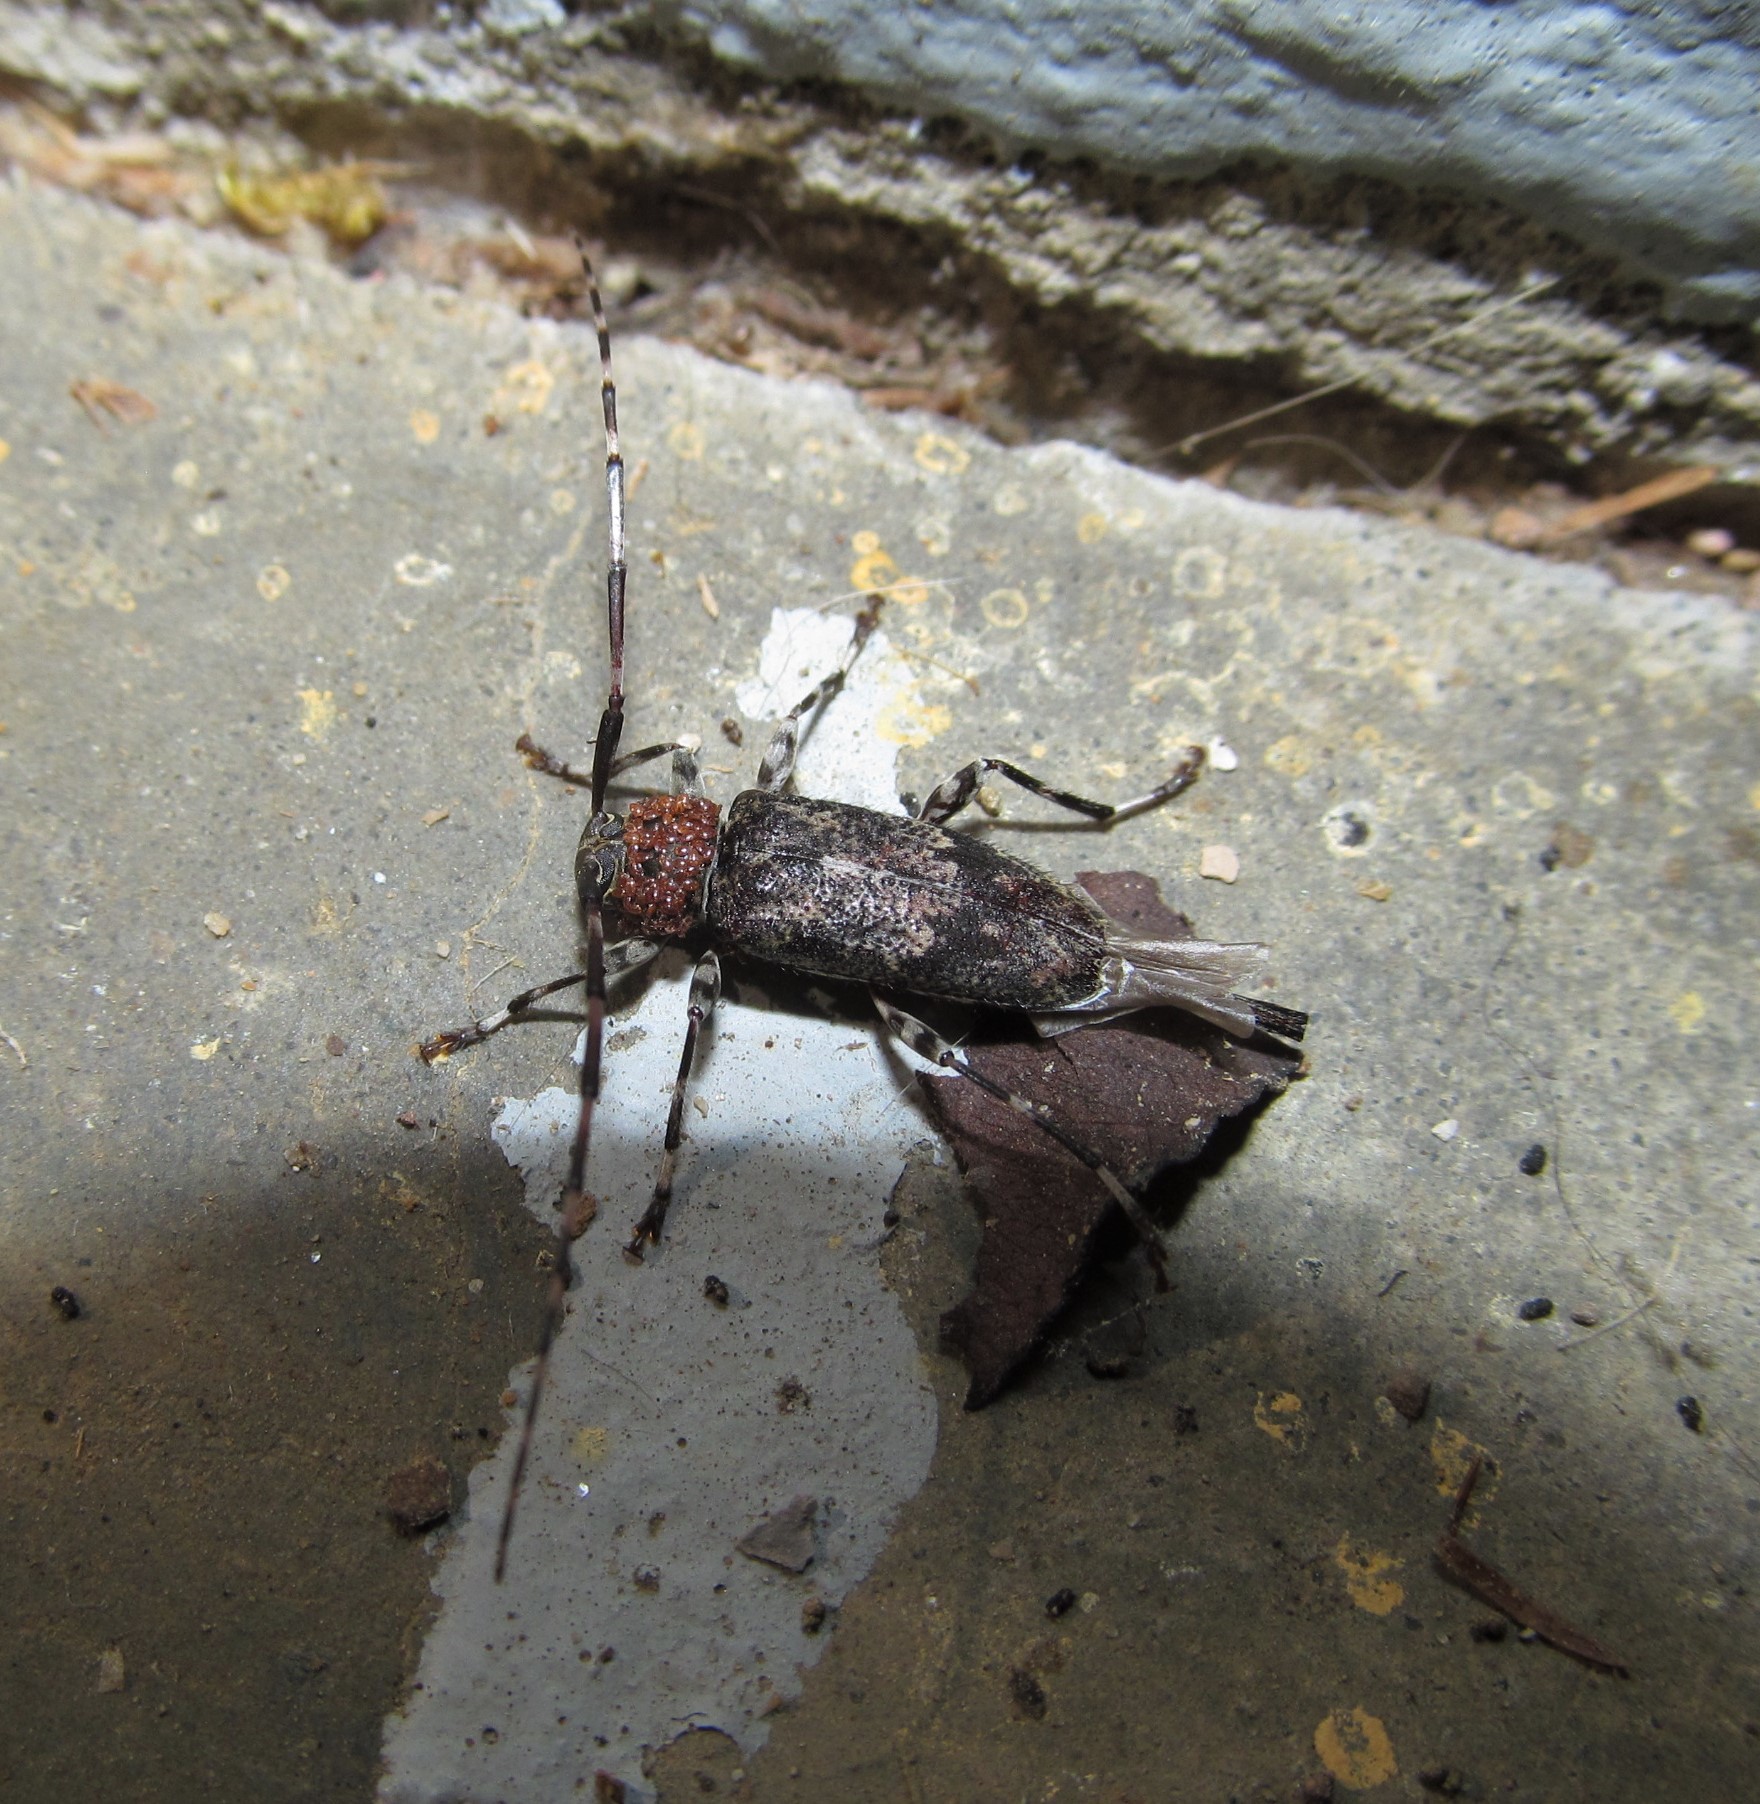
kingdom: Animalia
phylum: Arthropoda
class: Insecta
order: Coleoptera
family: Cerambycidae
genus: Graphisurus
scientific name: Graphisurus fasciatus
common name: Banded graphisurus
